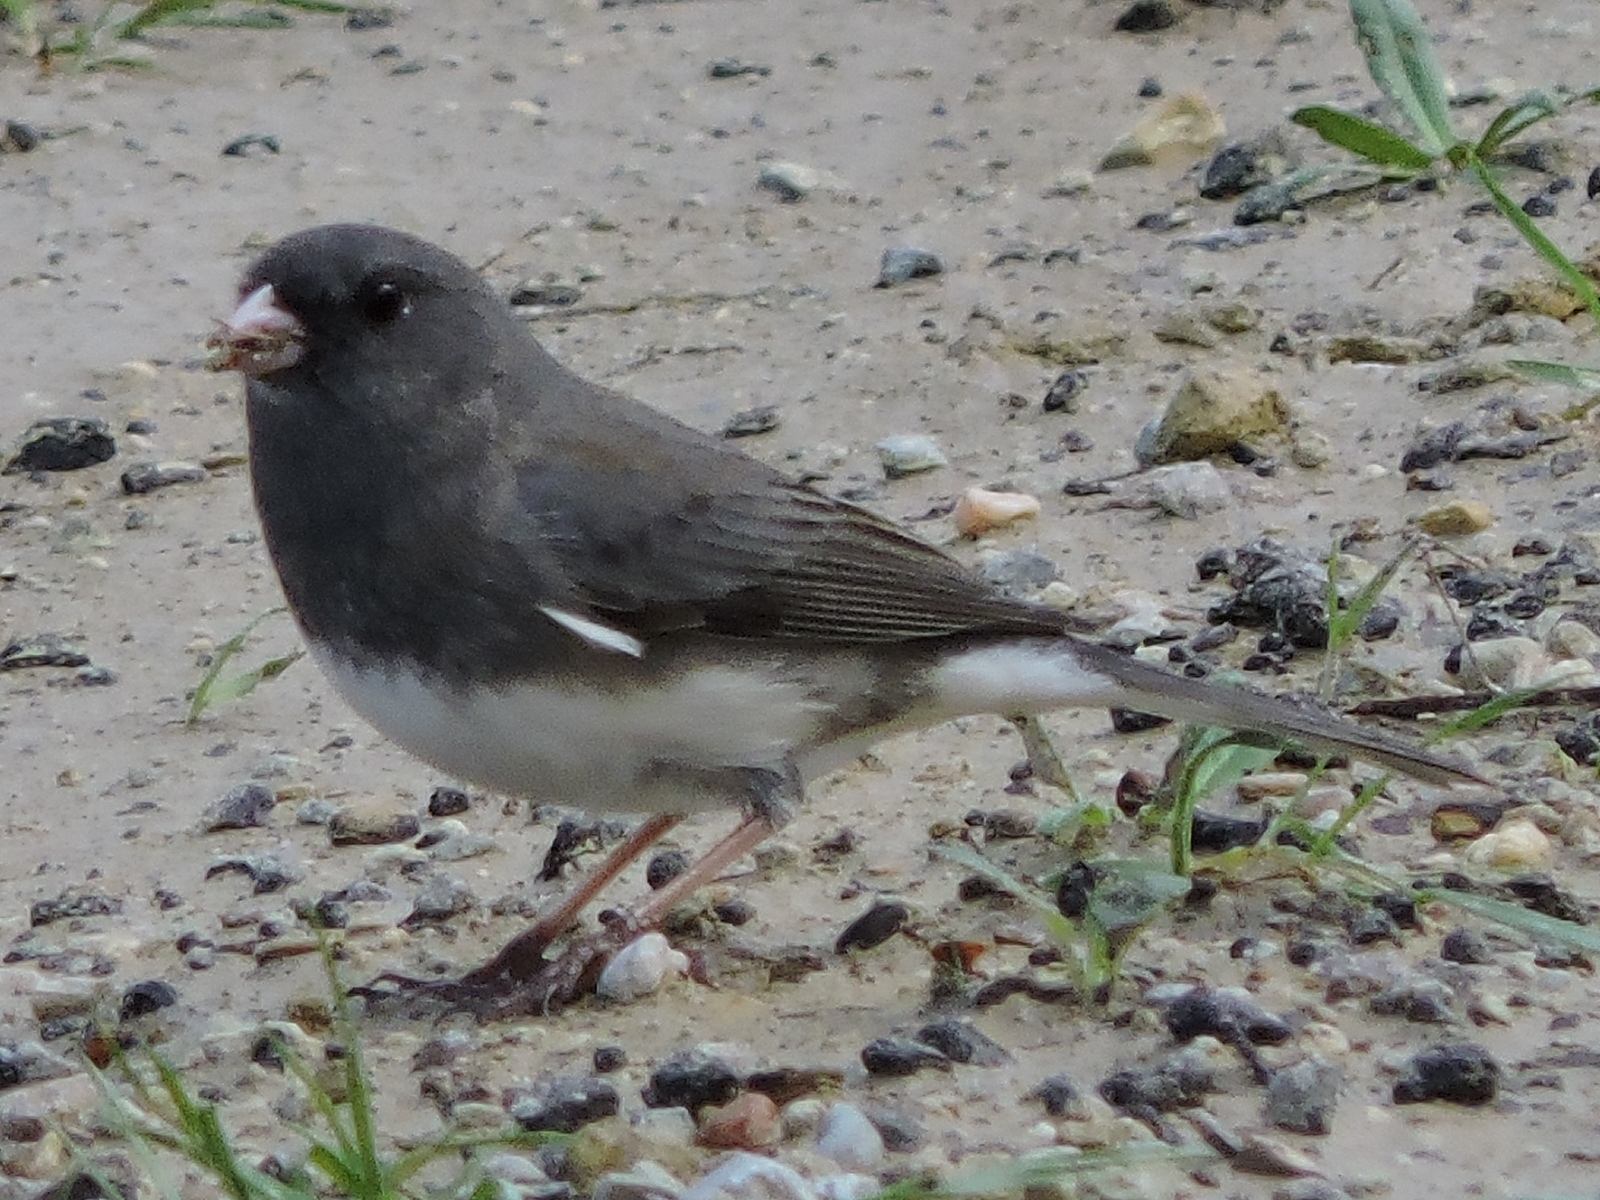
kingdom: Animalia
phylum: Chordata
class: Aves
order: Passeriformes
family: Passerellidae
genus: Junco
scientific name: Junco hyemalis
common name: Dark-eyed junco
